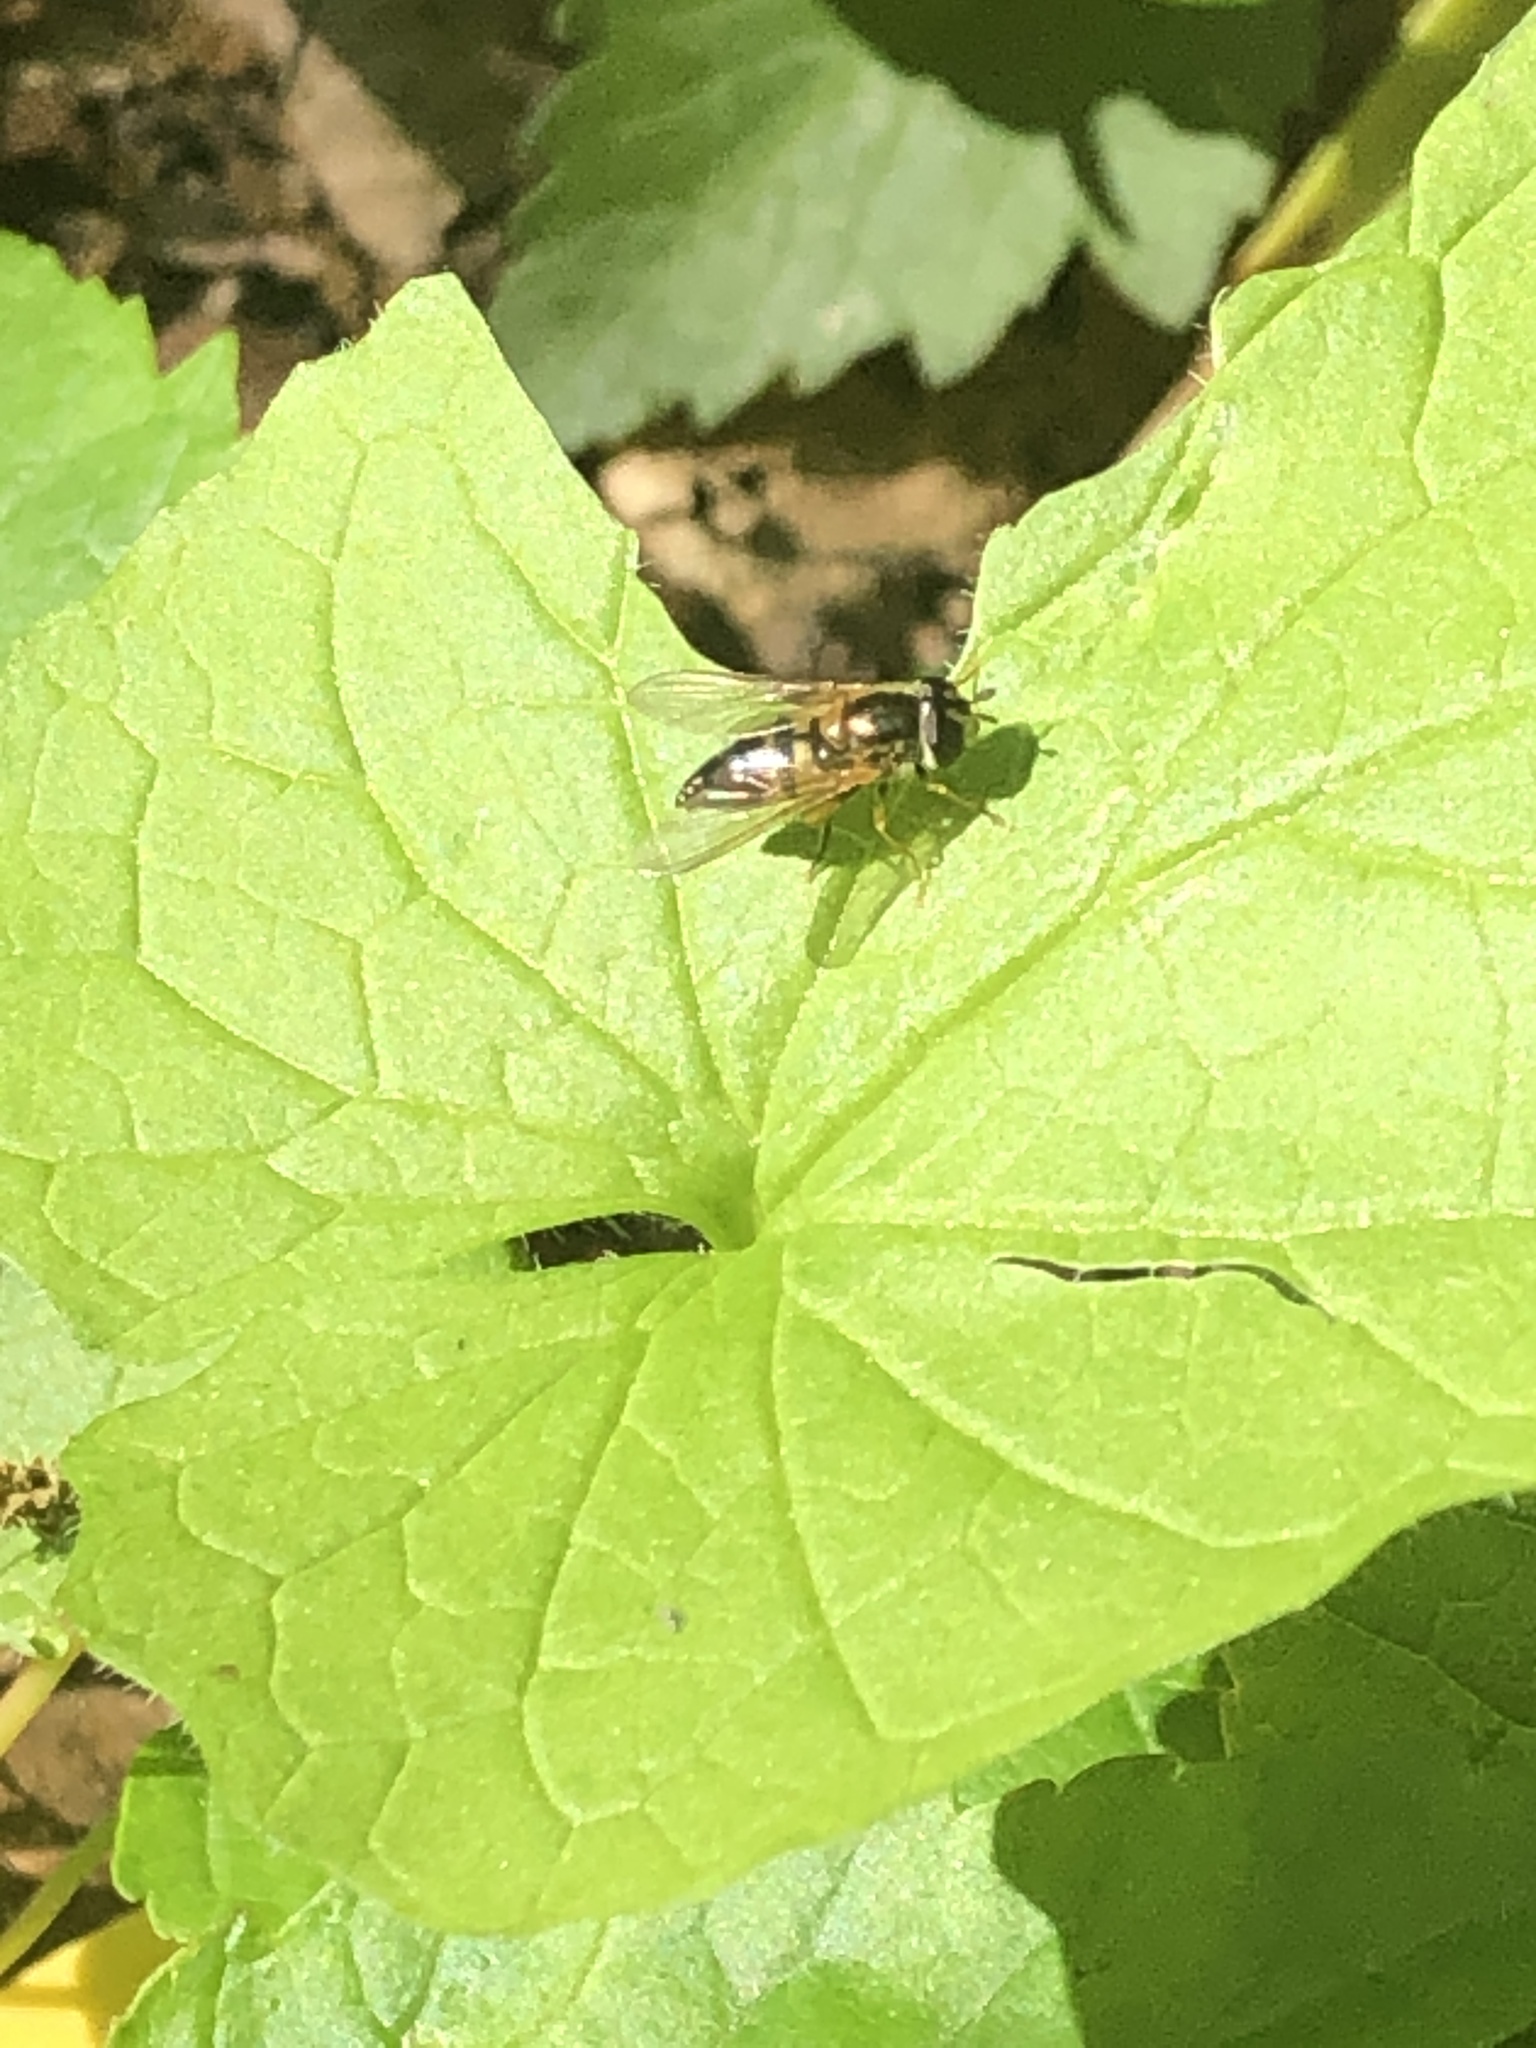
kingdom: Animalia
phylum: Arthropoda
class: Insecta
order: Diptera
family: Syrphidae
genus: Epistrophe
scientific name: Epistrophe eligans
